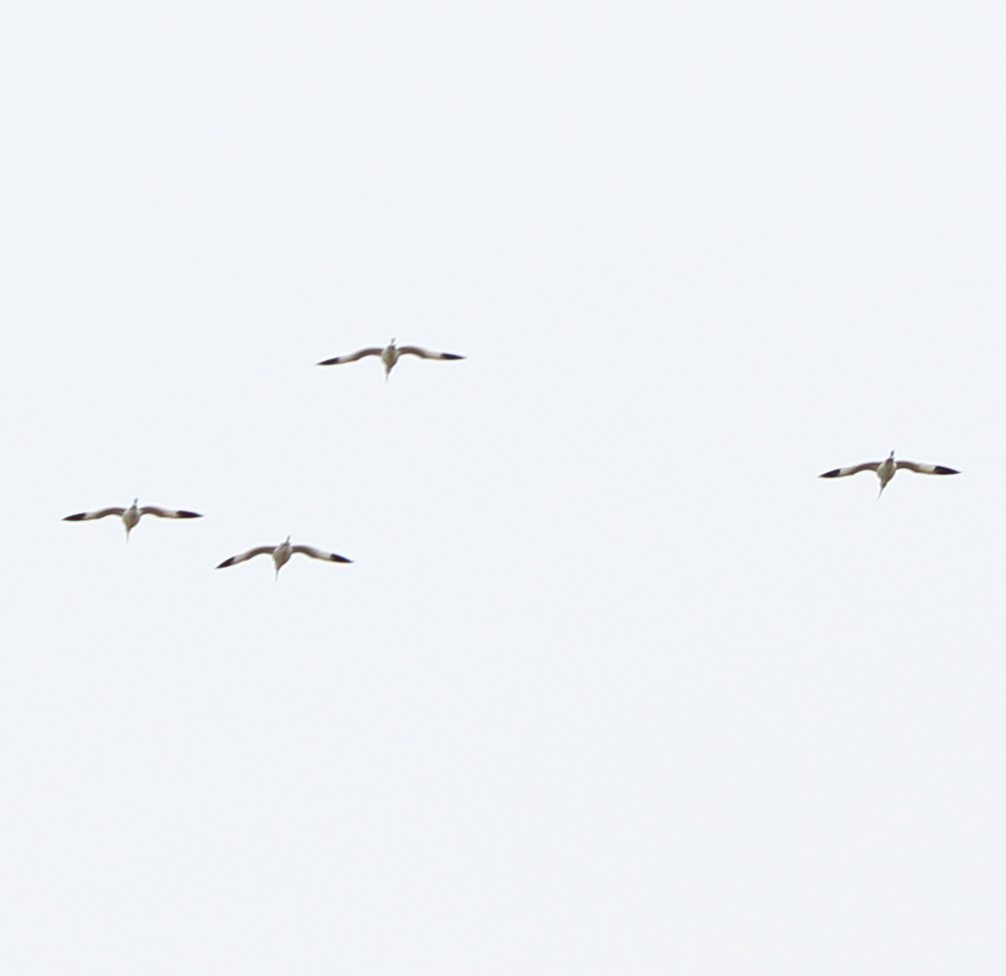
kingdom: Animalia
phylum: Chordata
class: Aves
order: Charadriiformes
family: Recurvirostridae
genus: Recurvirostra
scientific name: Recurvirostra avosetta
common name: Pied avocet
